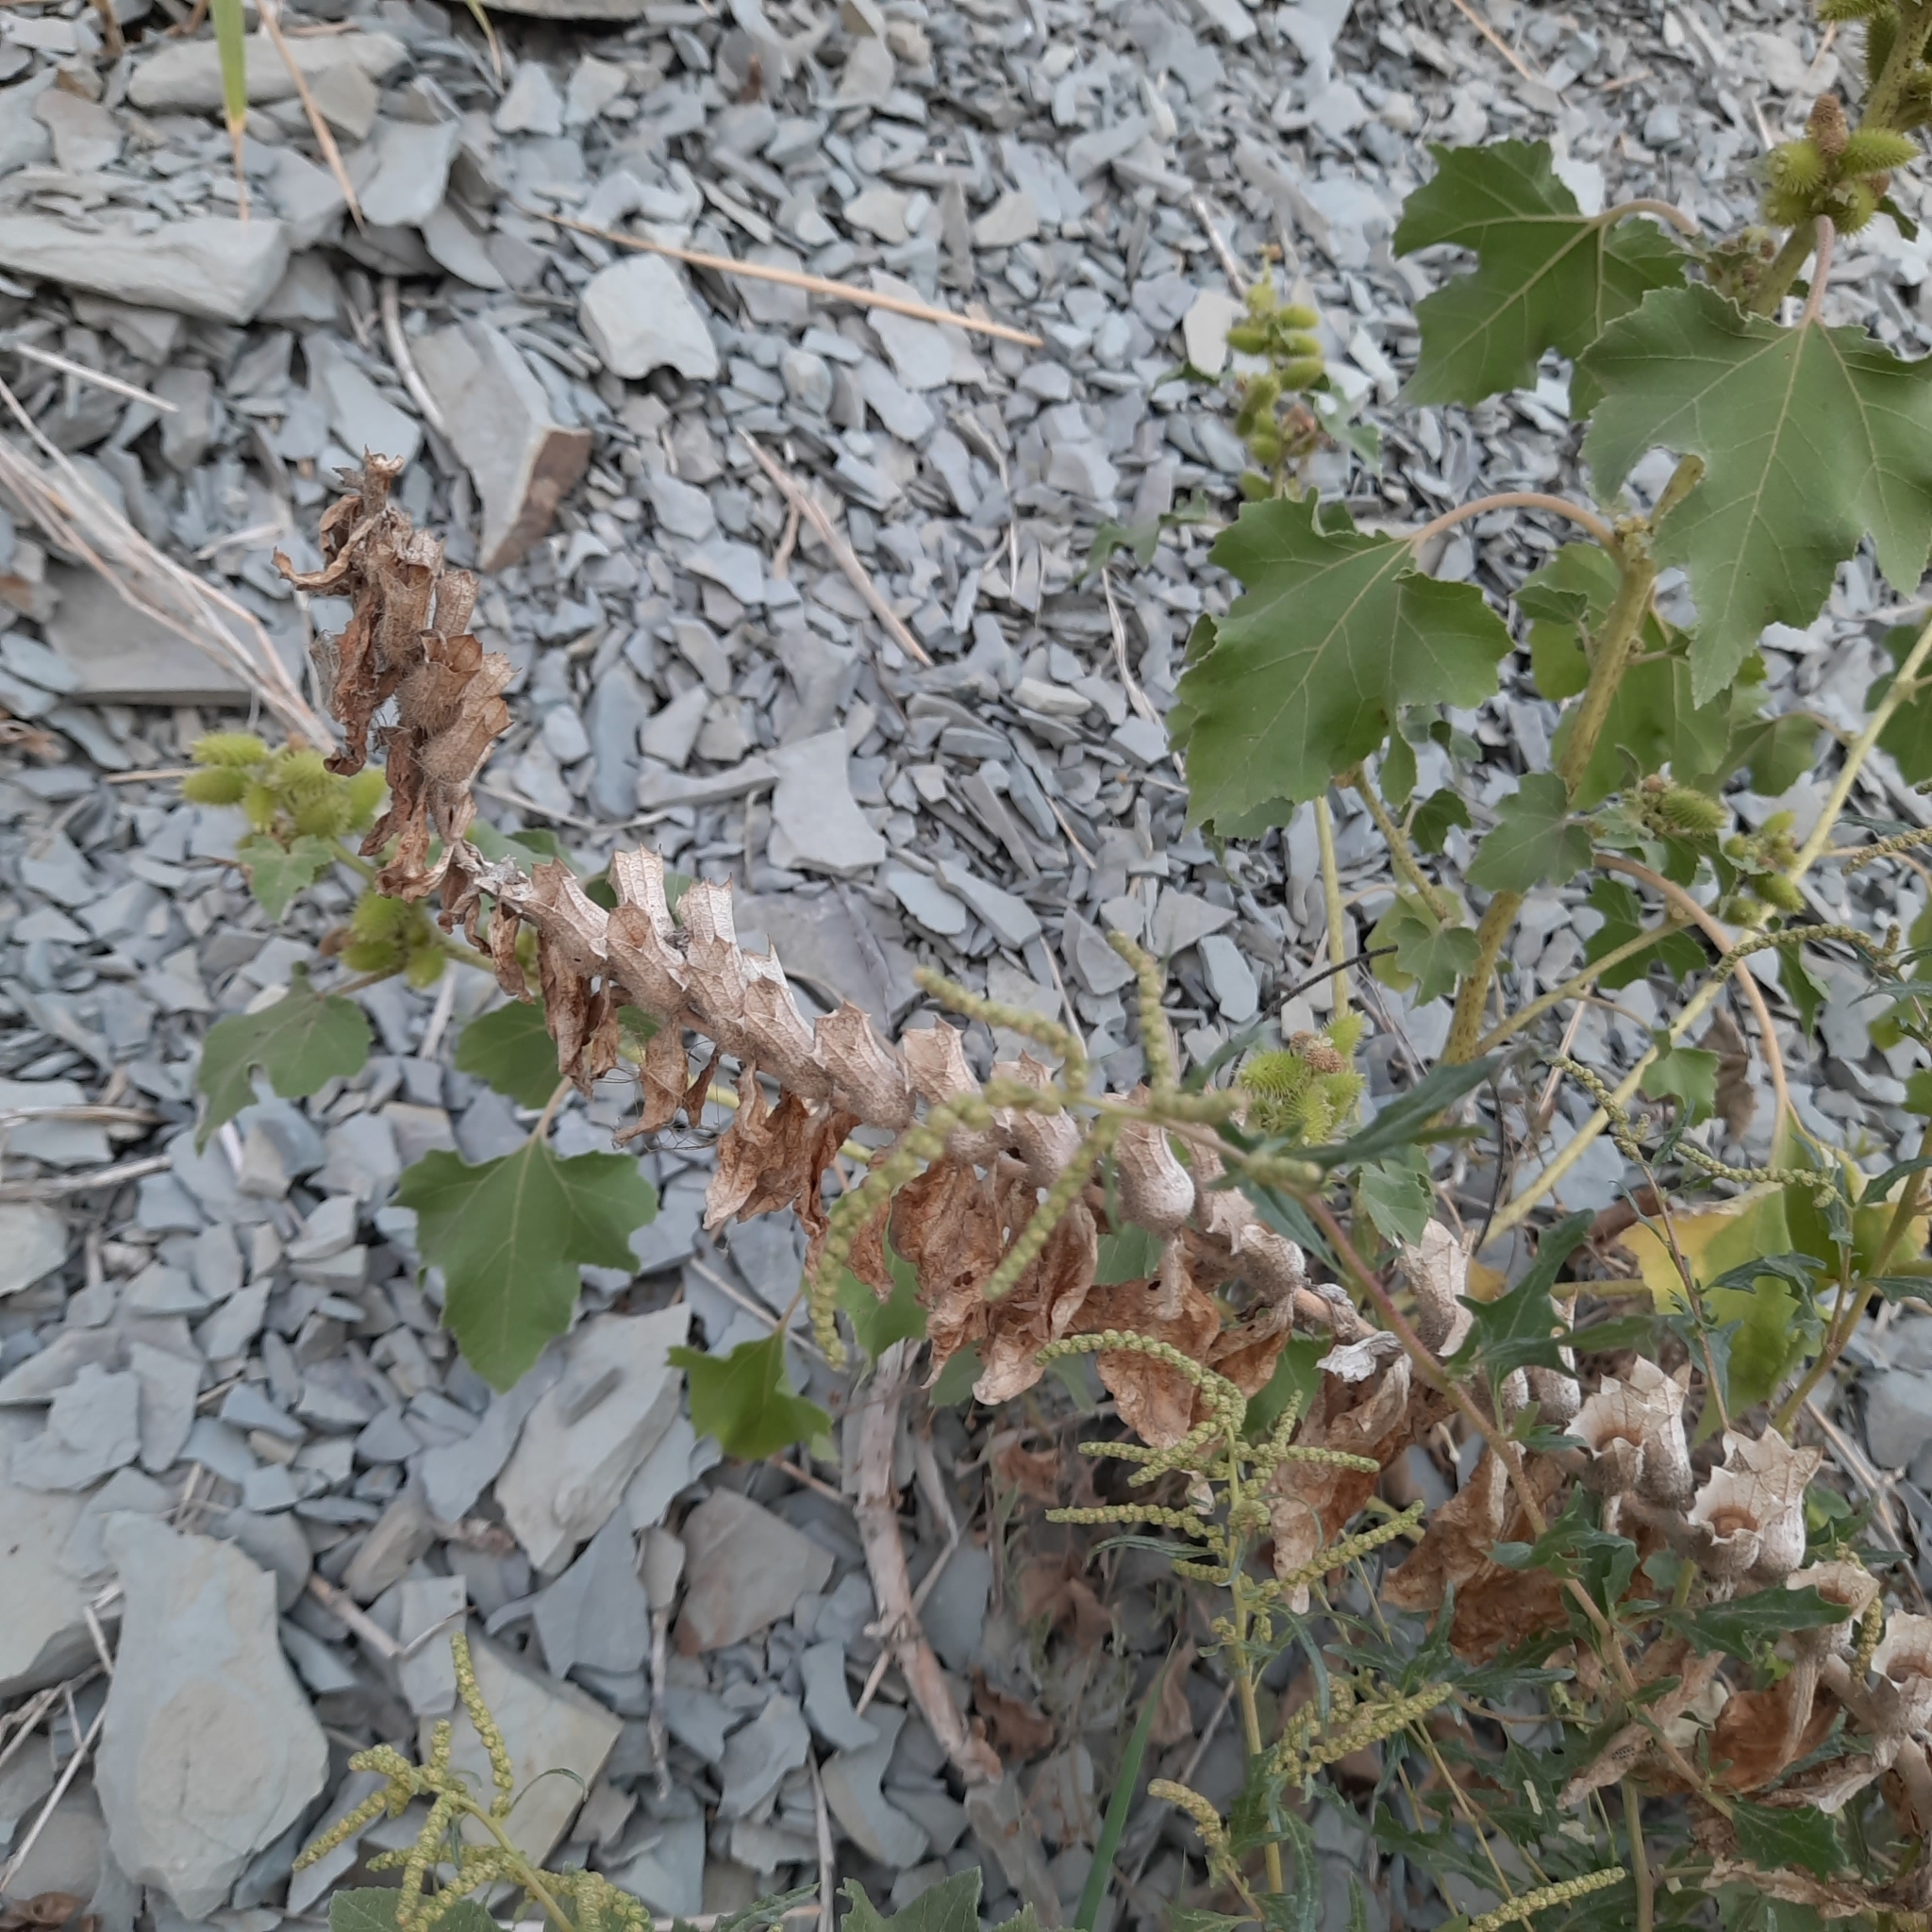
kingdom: Plantae
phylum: Tracheophyta
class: Magnoliopsida
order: Solanales
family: Solanaceae
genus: Hyoscyamus
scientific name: Hyoscyamus niger
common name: Henbane
